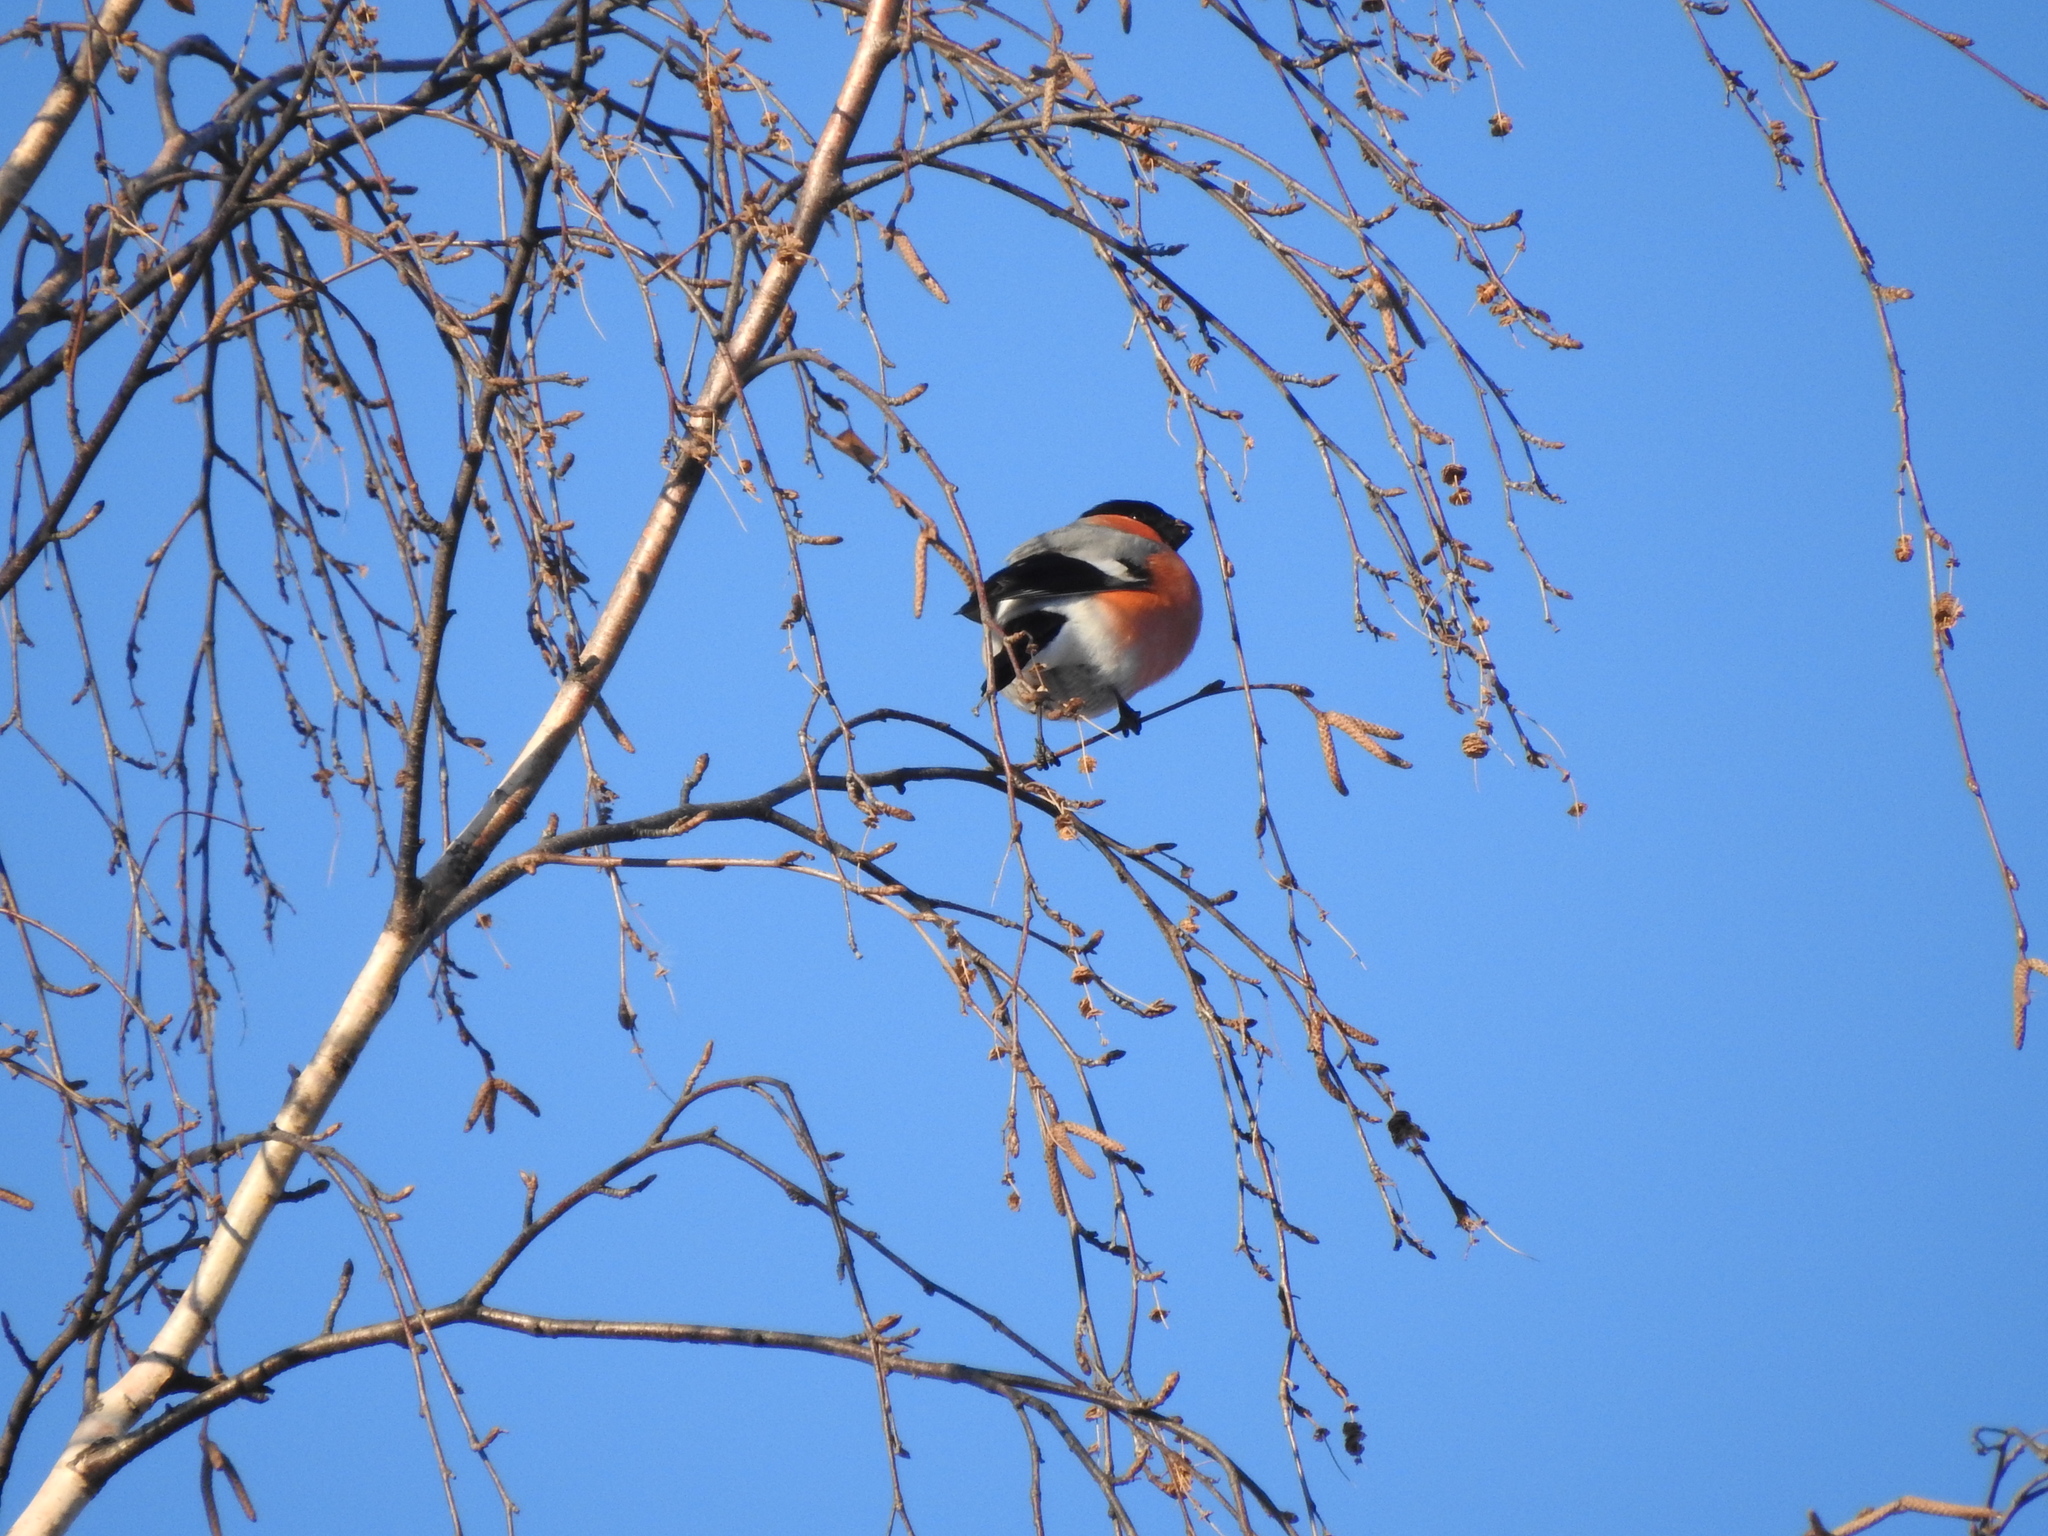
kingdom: Animalia
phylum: Chordata
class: Aves
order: Passeriformes
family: Fringillidae
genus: Pyrrhula
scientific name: Pyrrhula pyrrhula
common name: Eurasian bullfinch
